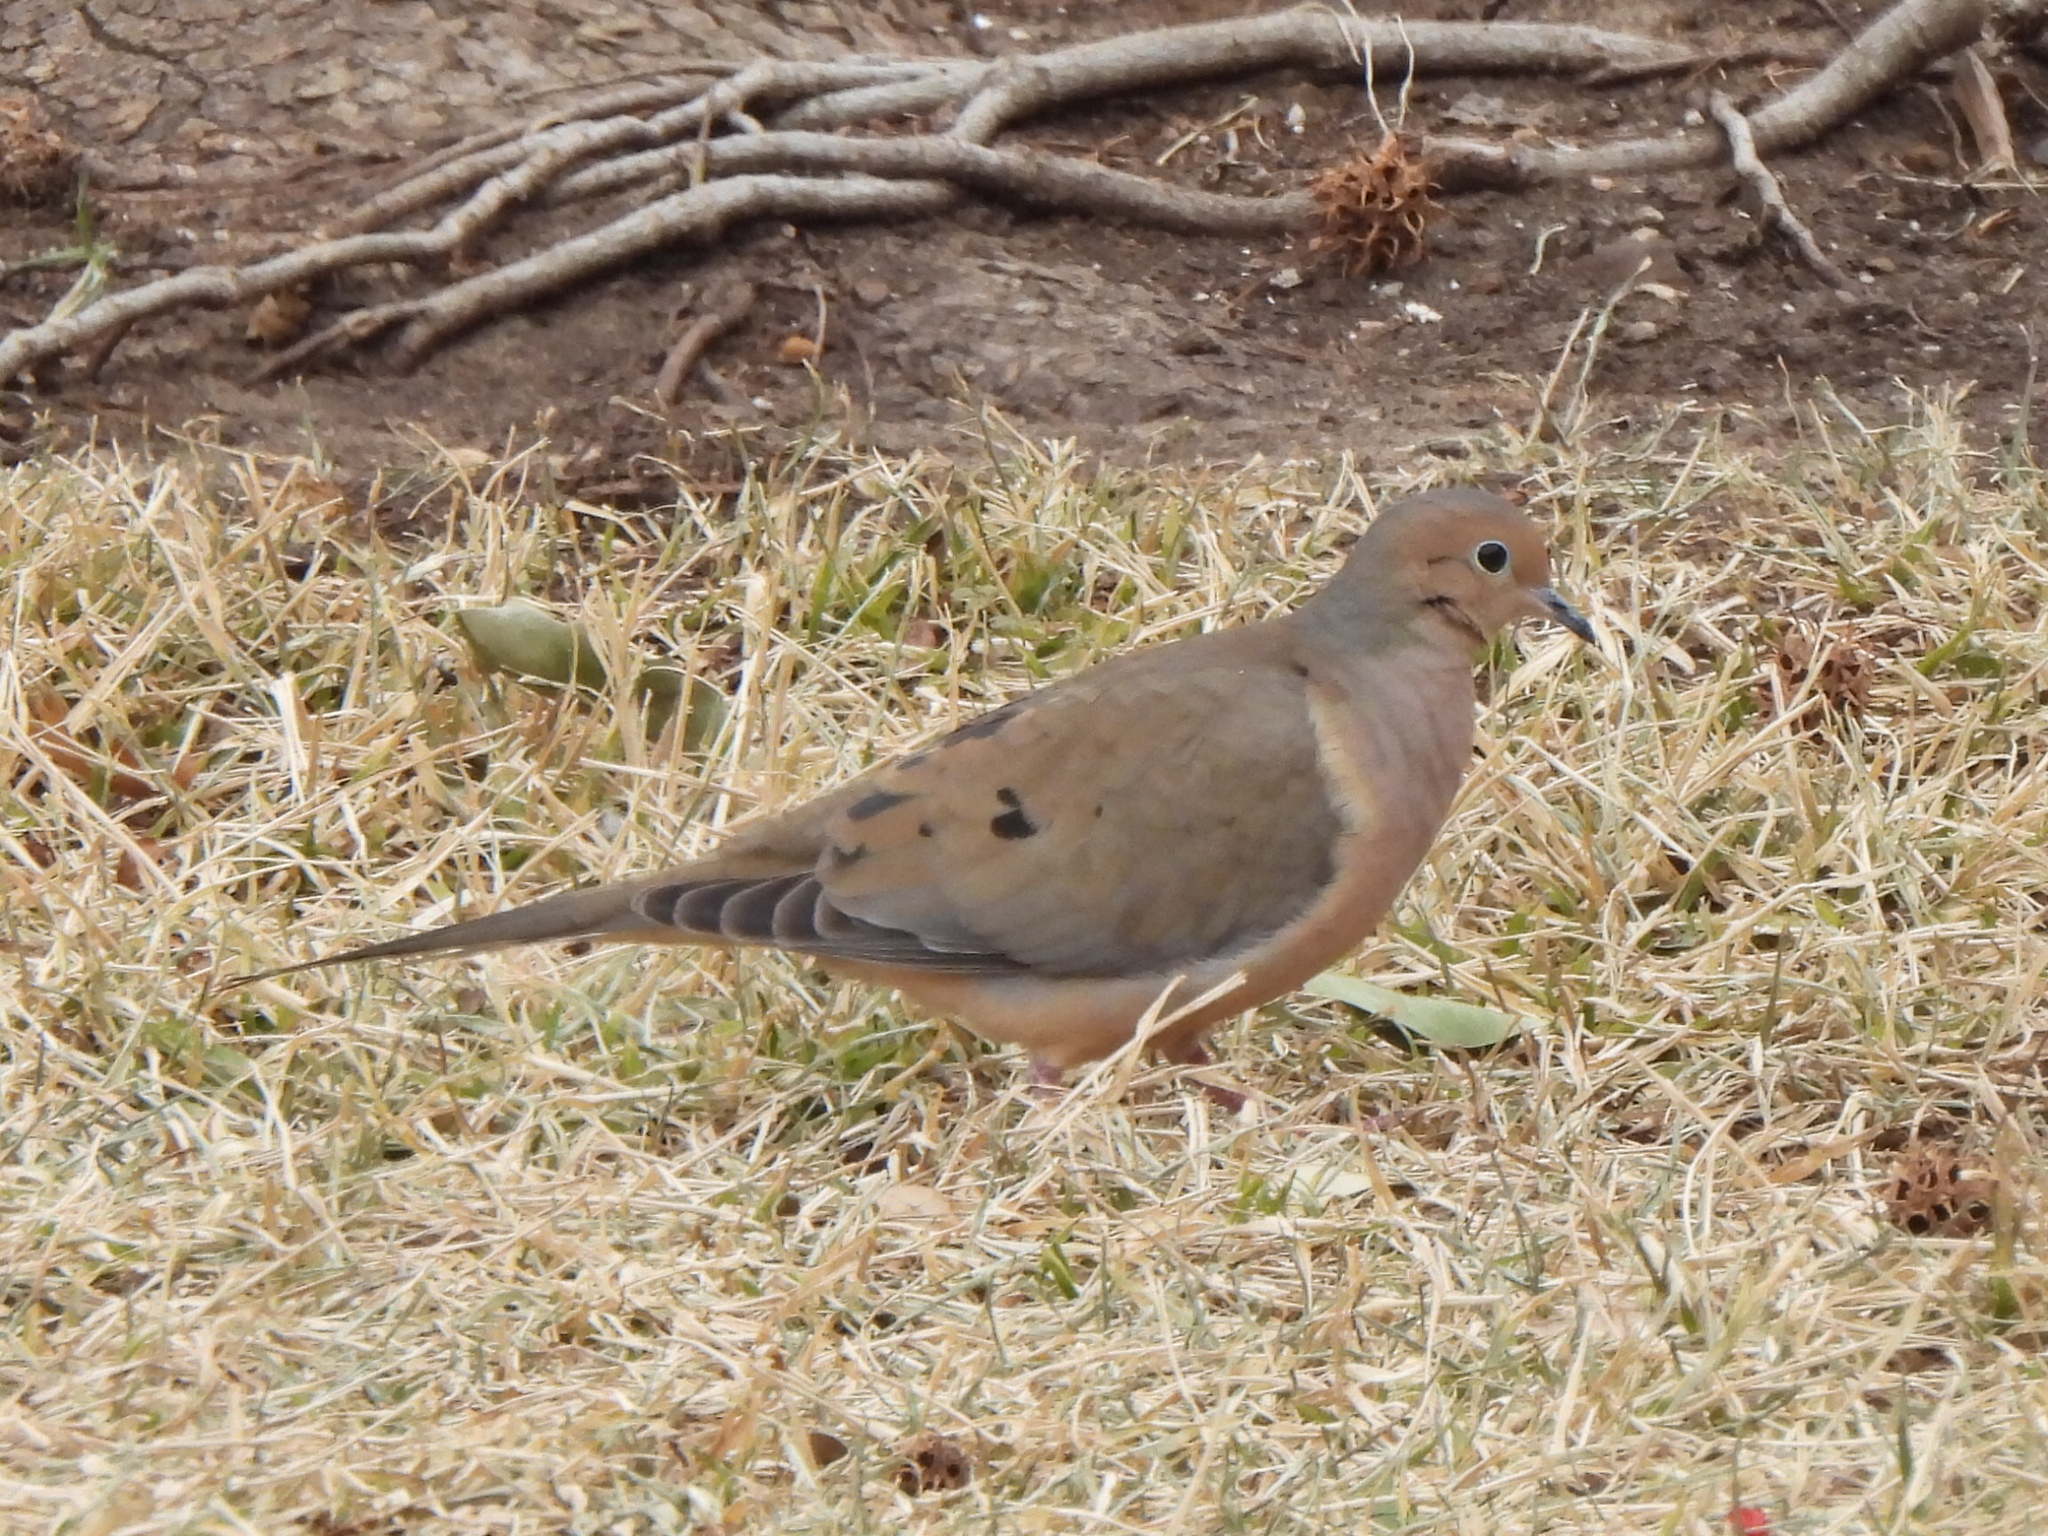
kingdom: Animalia
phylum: Chordata
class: Aves
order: Columbiformes
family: Columbidae
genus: Zenaida
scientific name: Zenaida macroura
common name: Mourning dove
